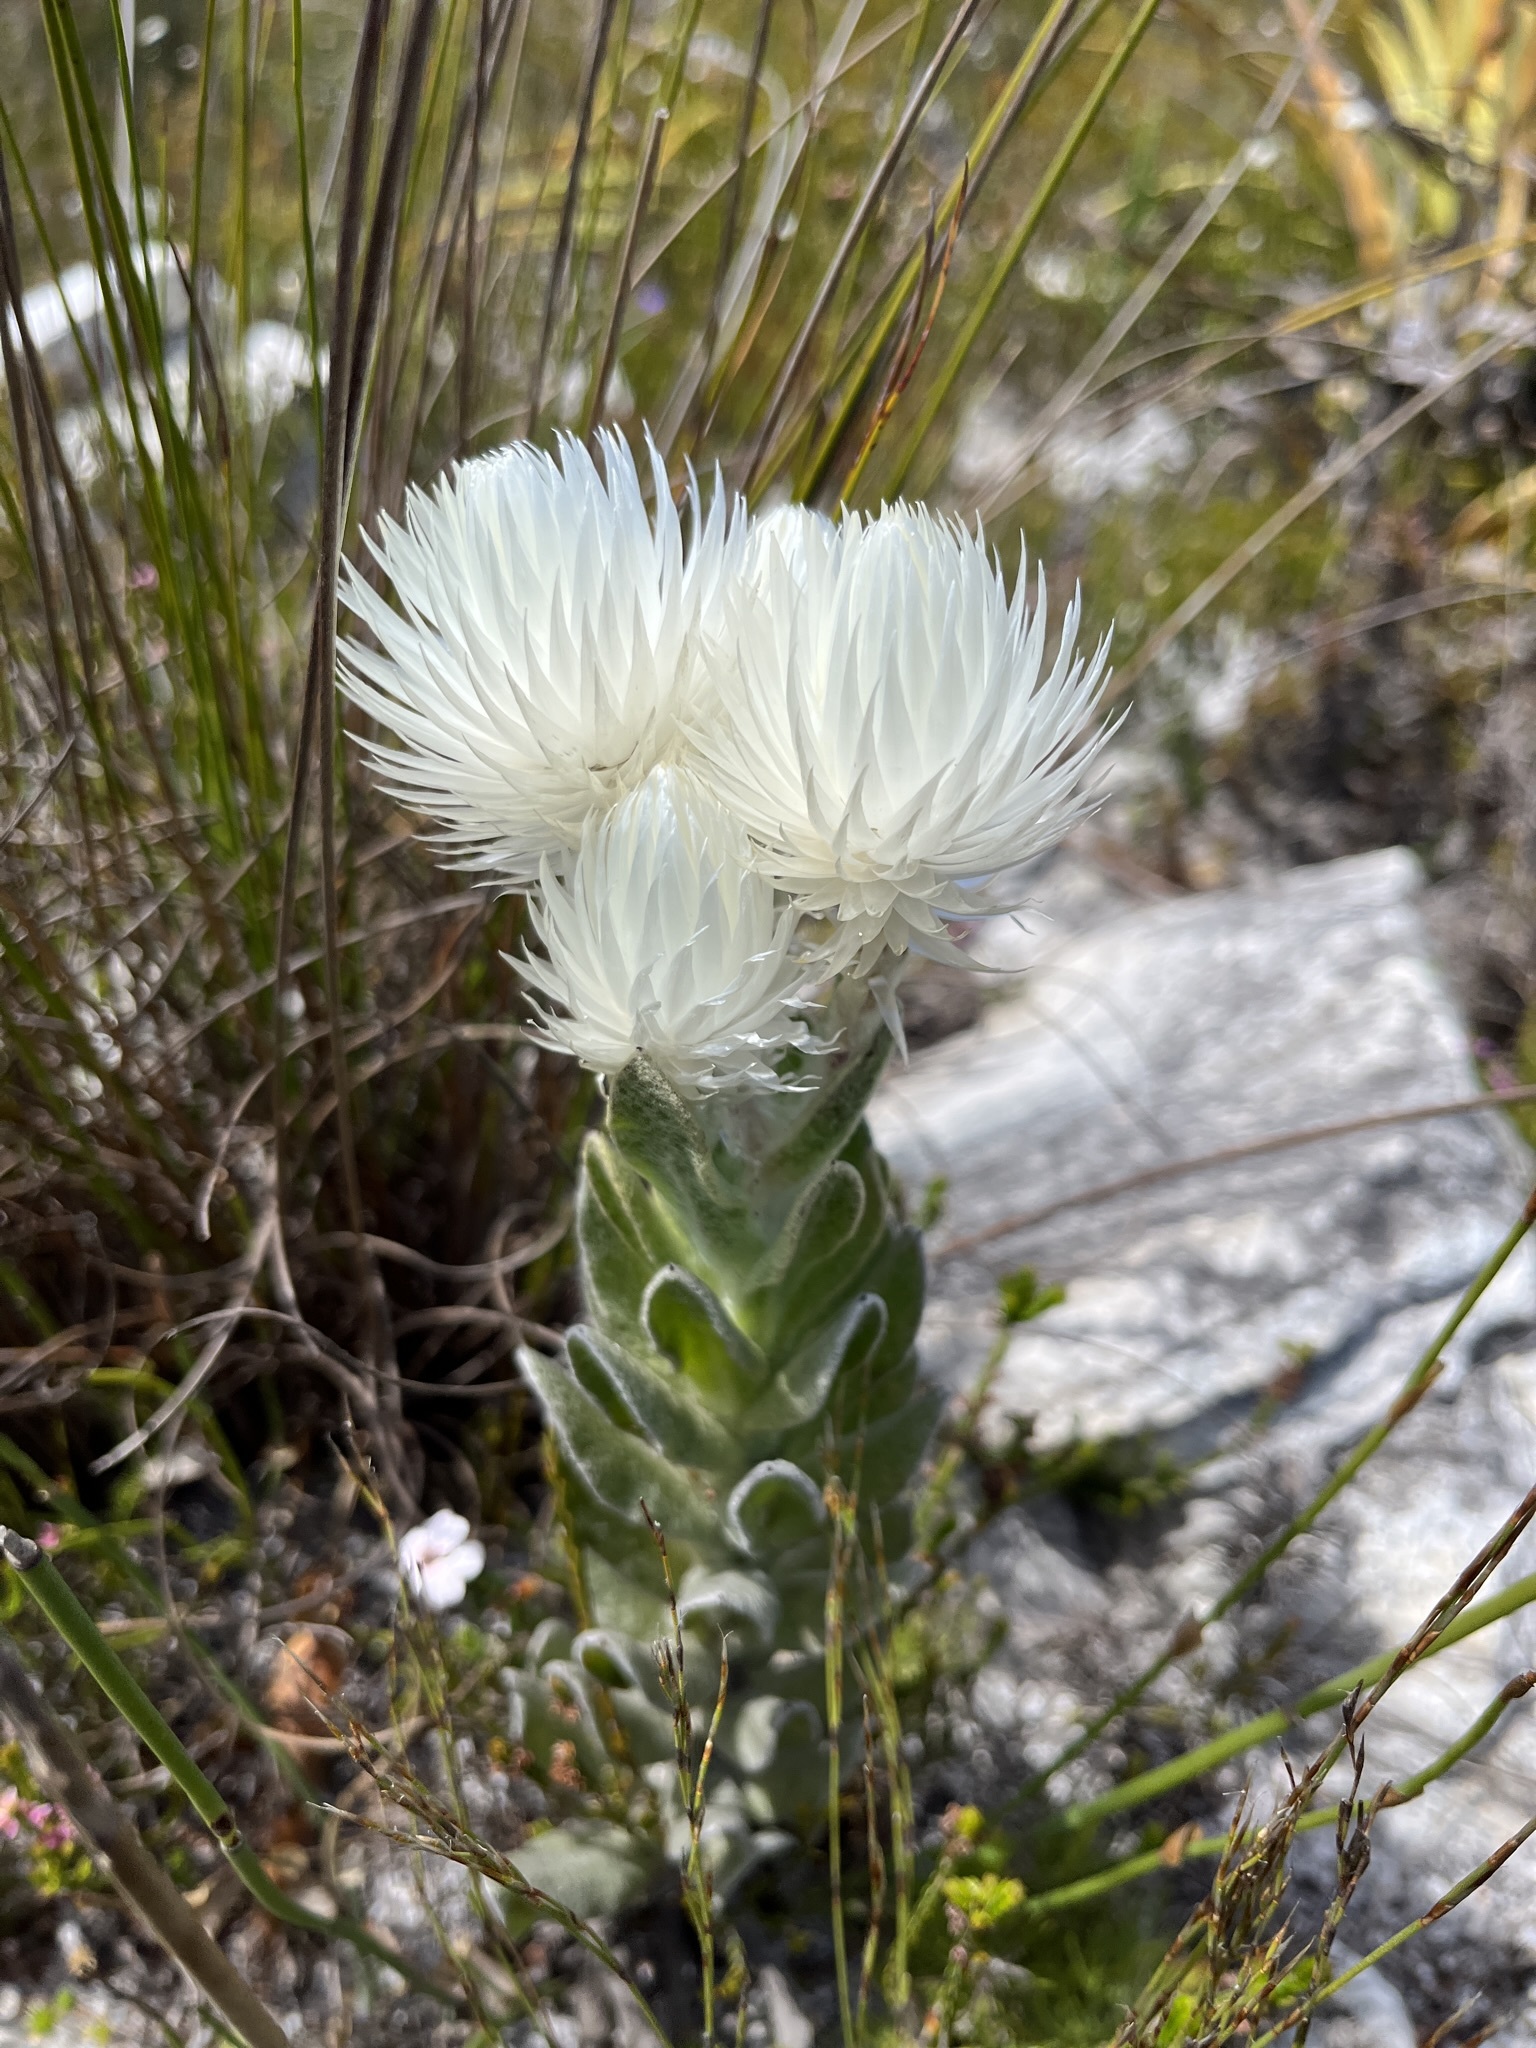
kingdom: Plantae
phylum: Tracheophyta
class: Magnoliopsida
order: Asterales
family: Asteraceae
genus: Syncarpha
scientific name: Syncarpha vestita
